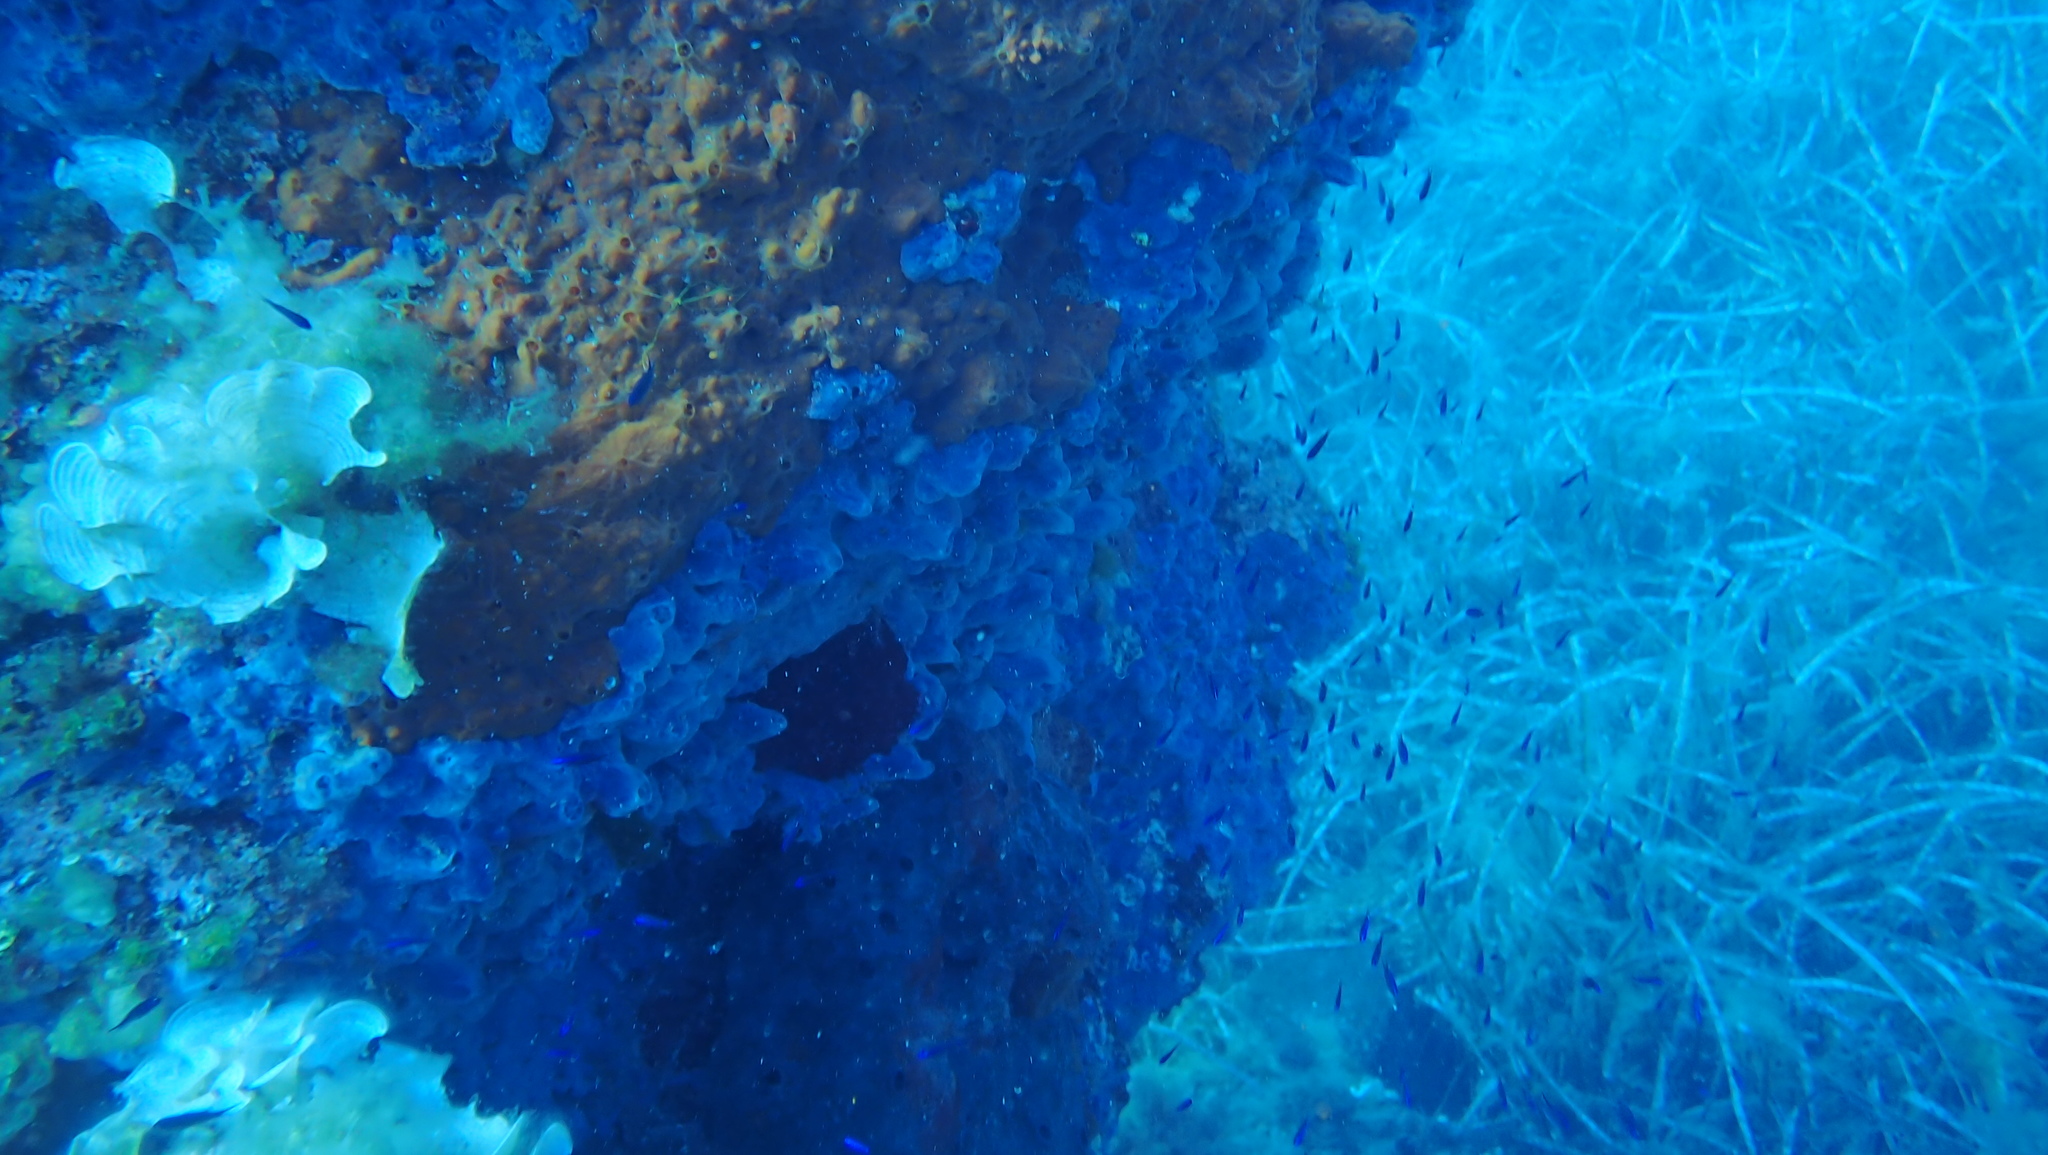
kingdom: Animalia
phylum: Porifera
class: Demospongiae
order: Poecilosclerida
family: Crambeidae
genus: Crambe
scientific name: Crambe crambe
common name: Orange-red encrusting sponge
